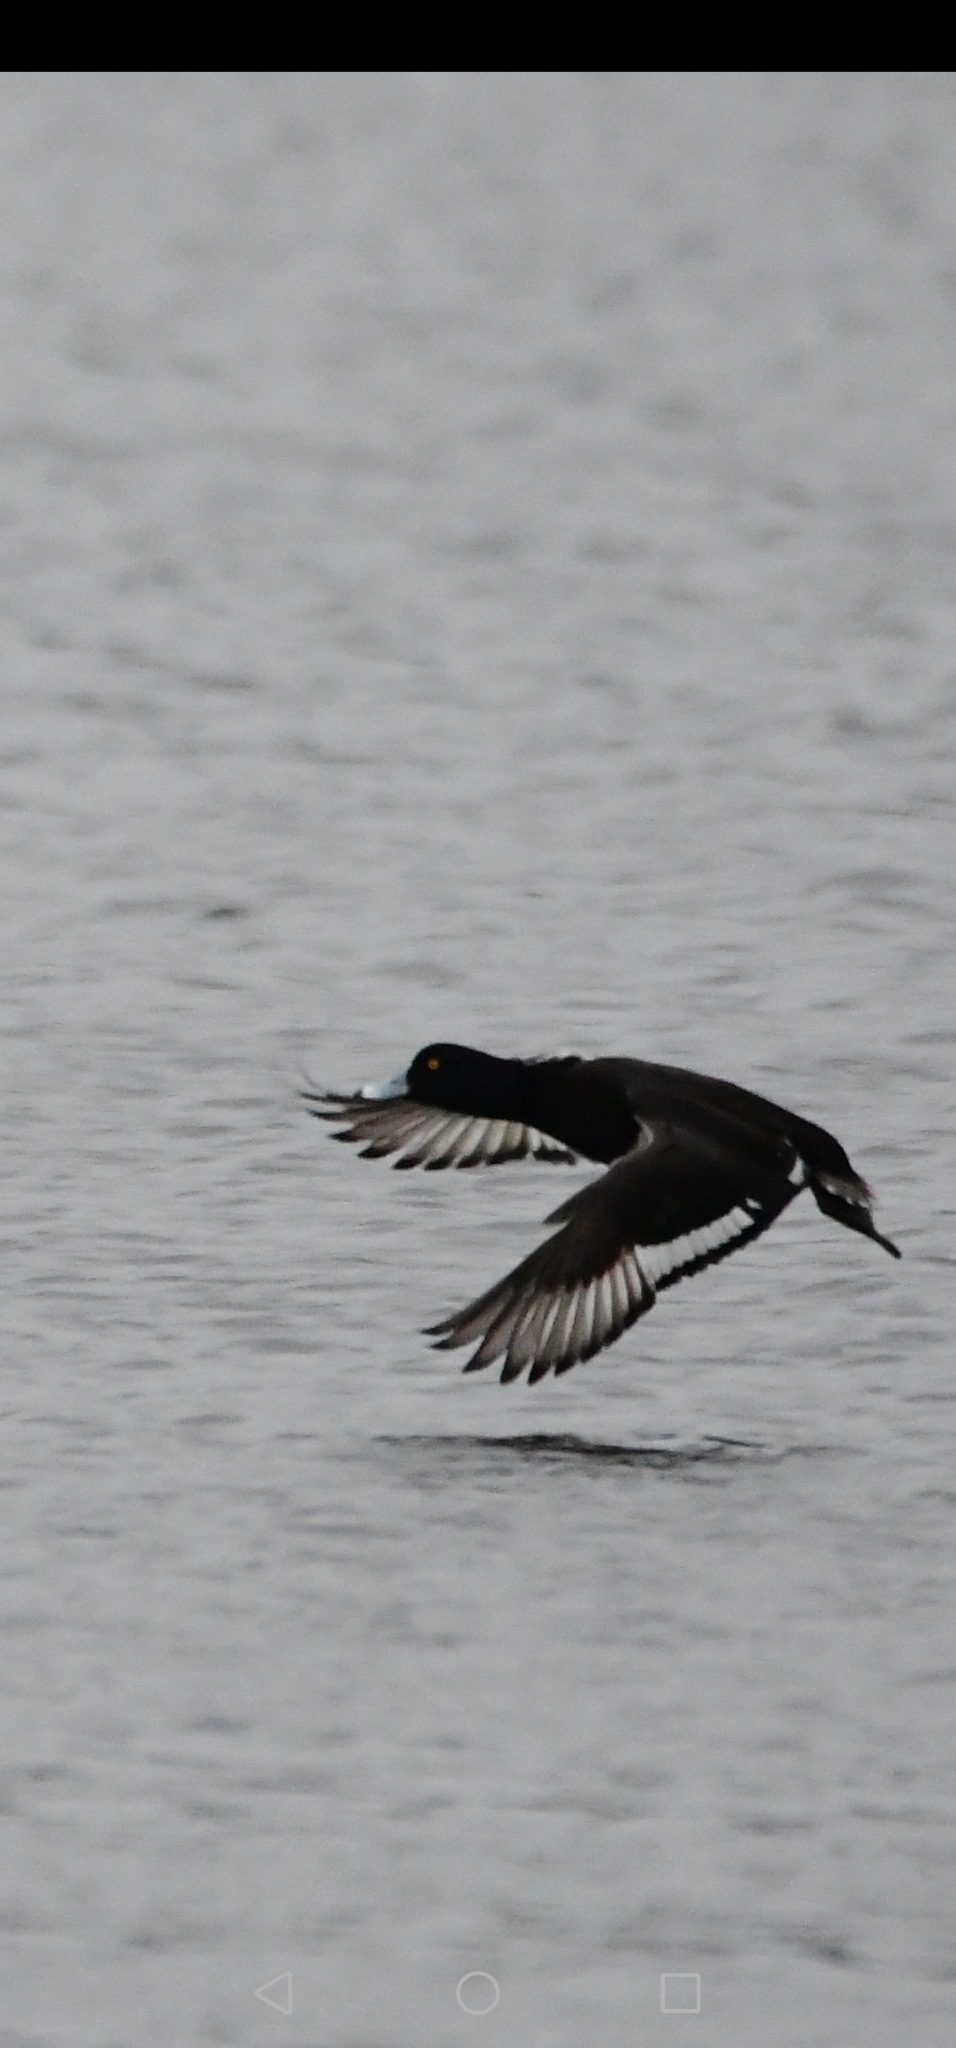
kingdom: Animalia
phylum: Chordata
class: Aves
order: Anseriformes
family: Anatidae
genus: Aythya
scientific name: Aythya fuligula
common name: Tufted duck
